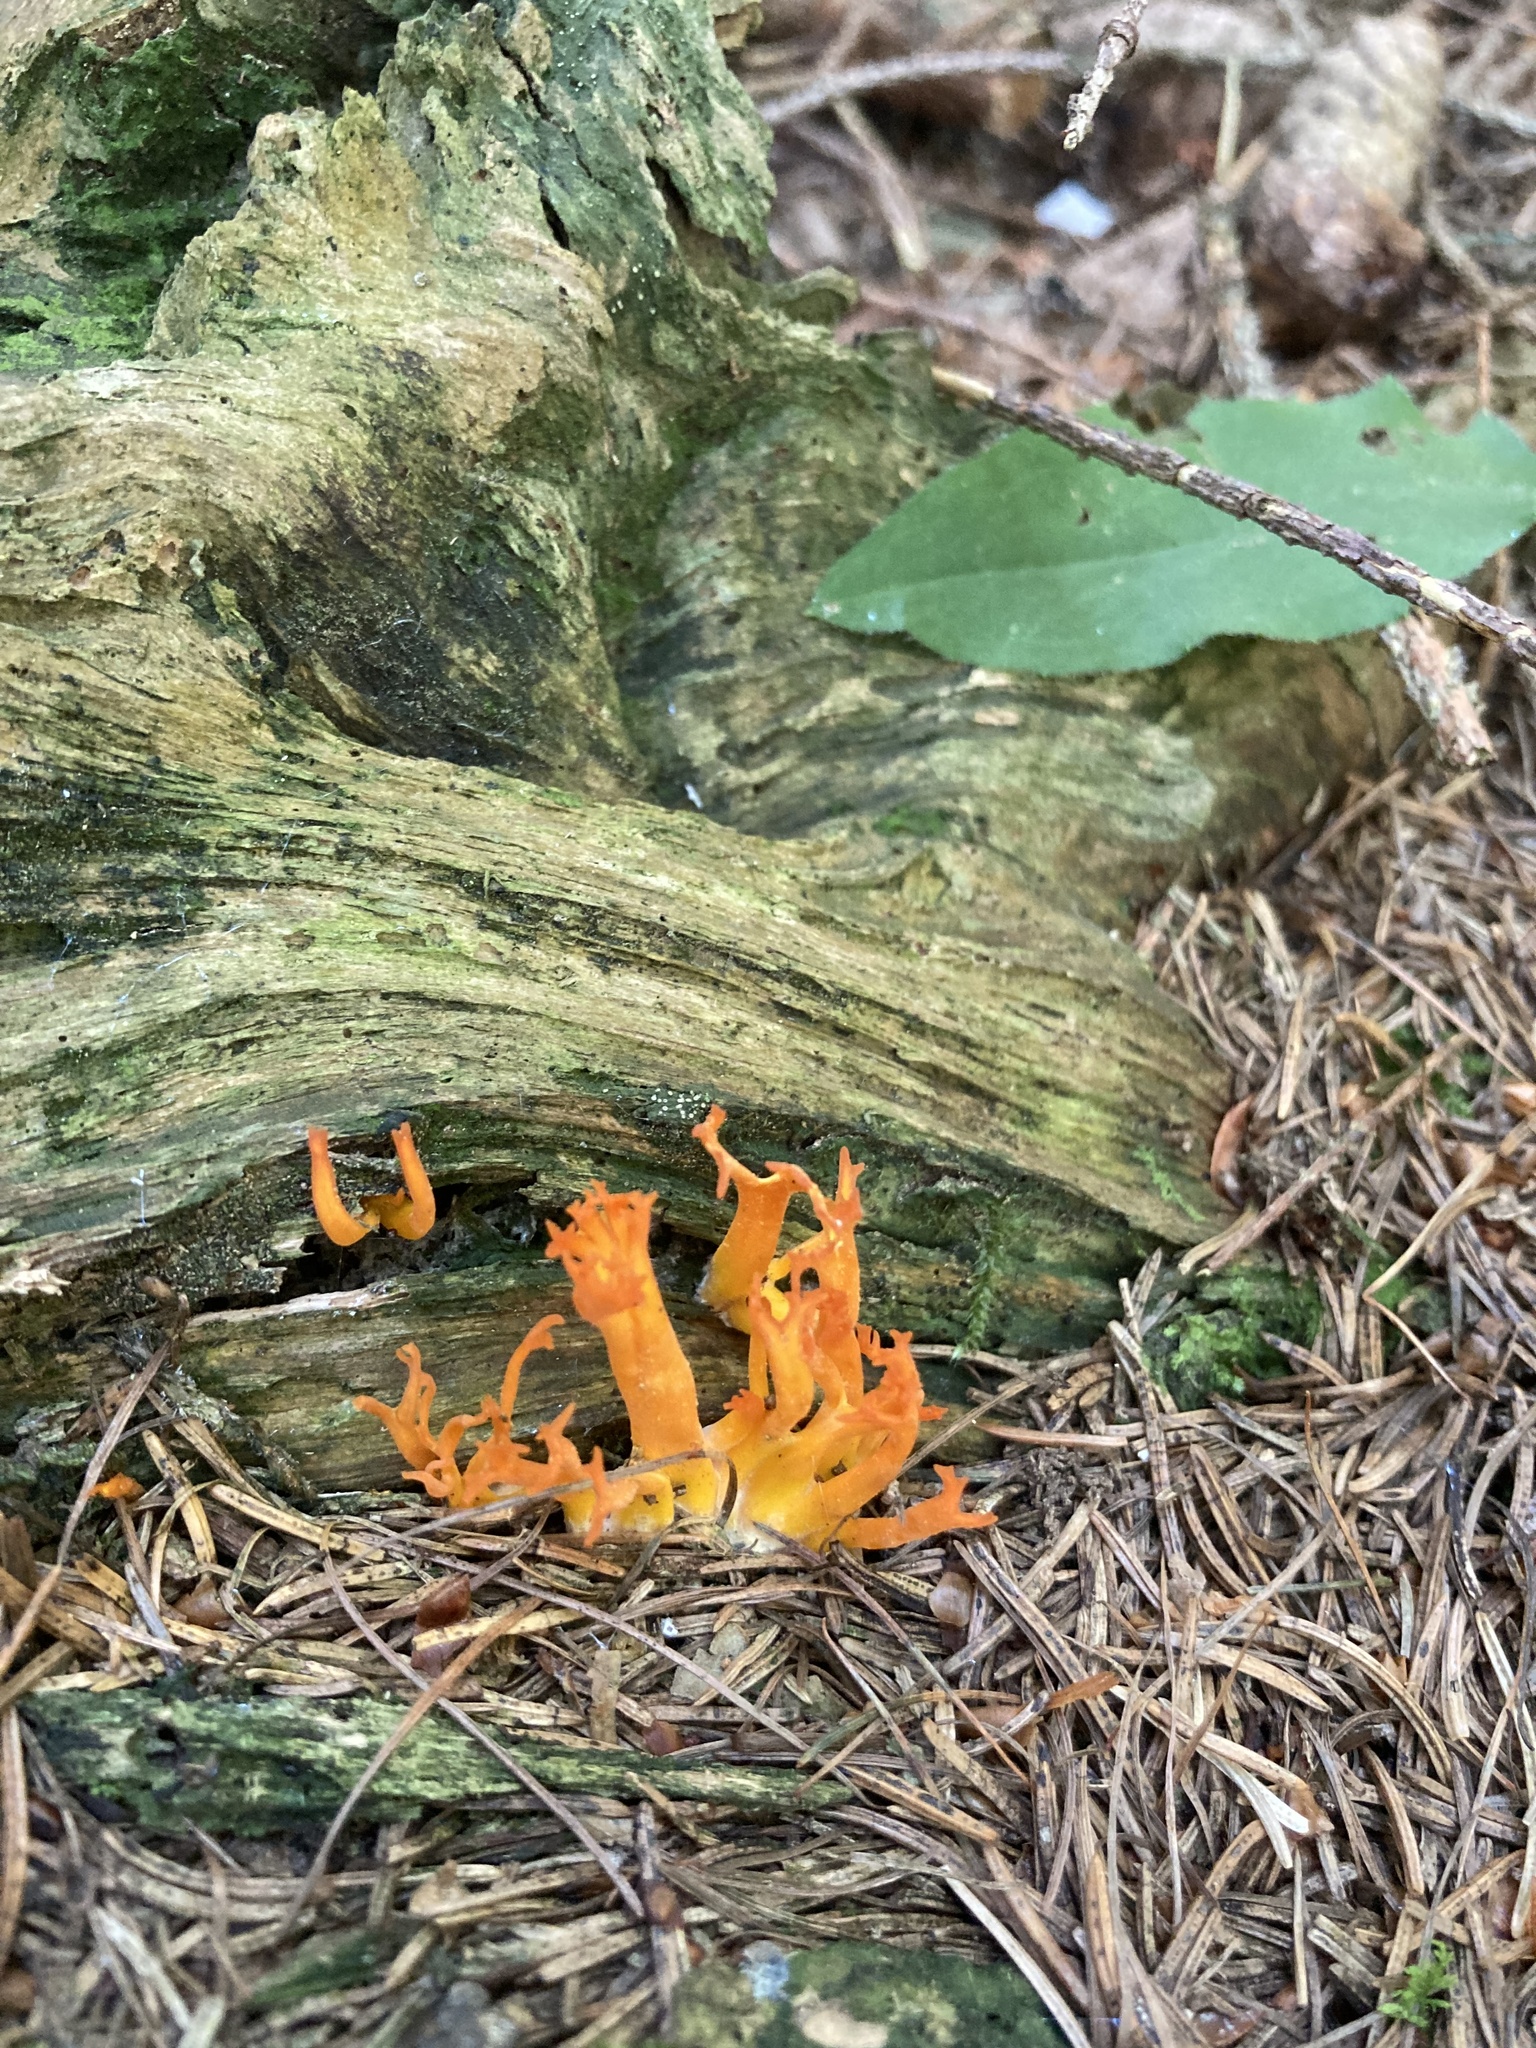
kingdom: Fungi
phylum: Basidiomycota
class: Dacrymycetes
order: Dacrymycetales
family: Dacrymycetaceae
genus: Calocera
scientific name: Calocera viscosa
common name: Yellow stagshorn
